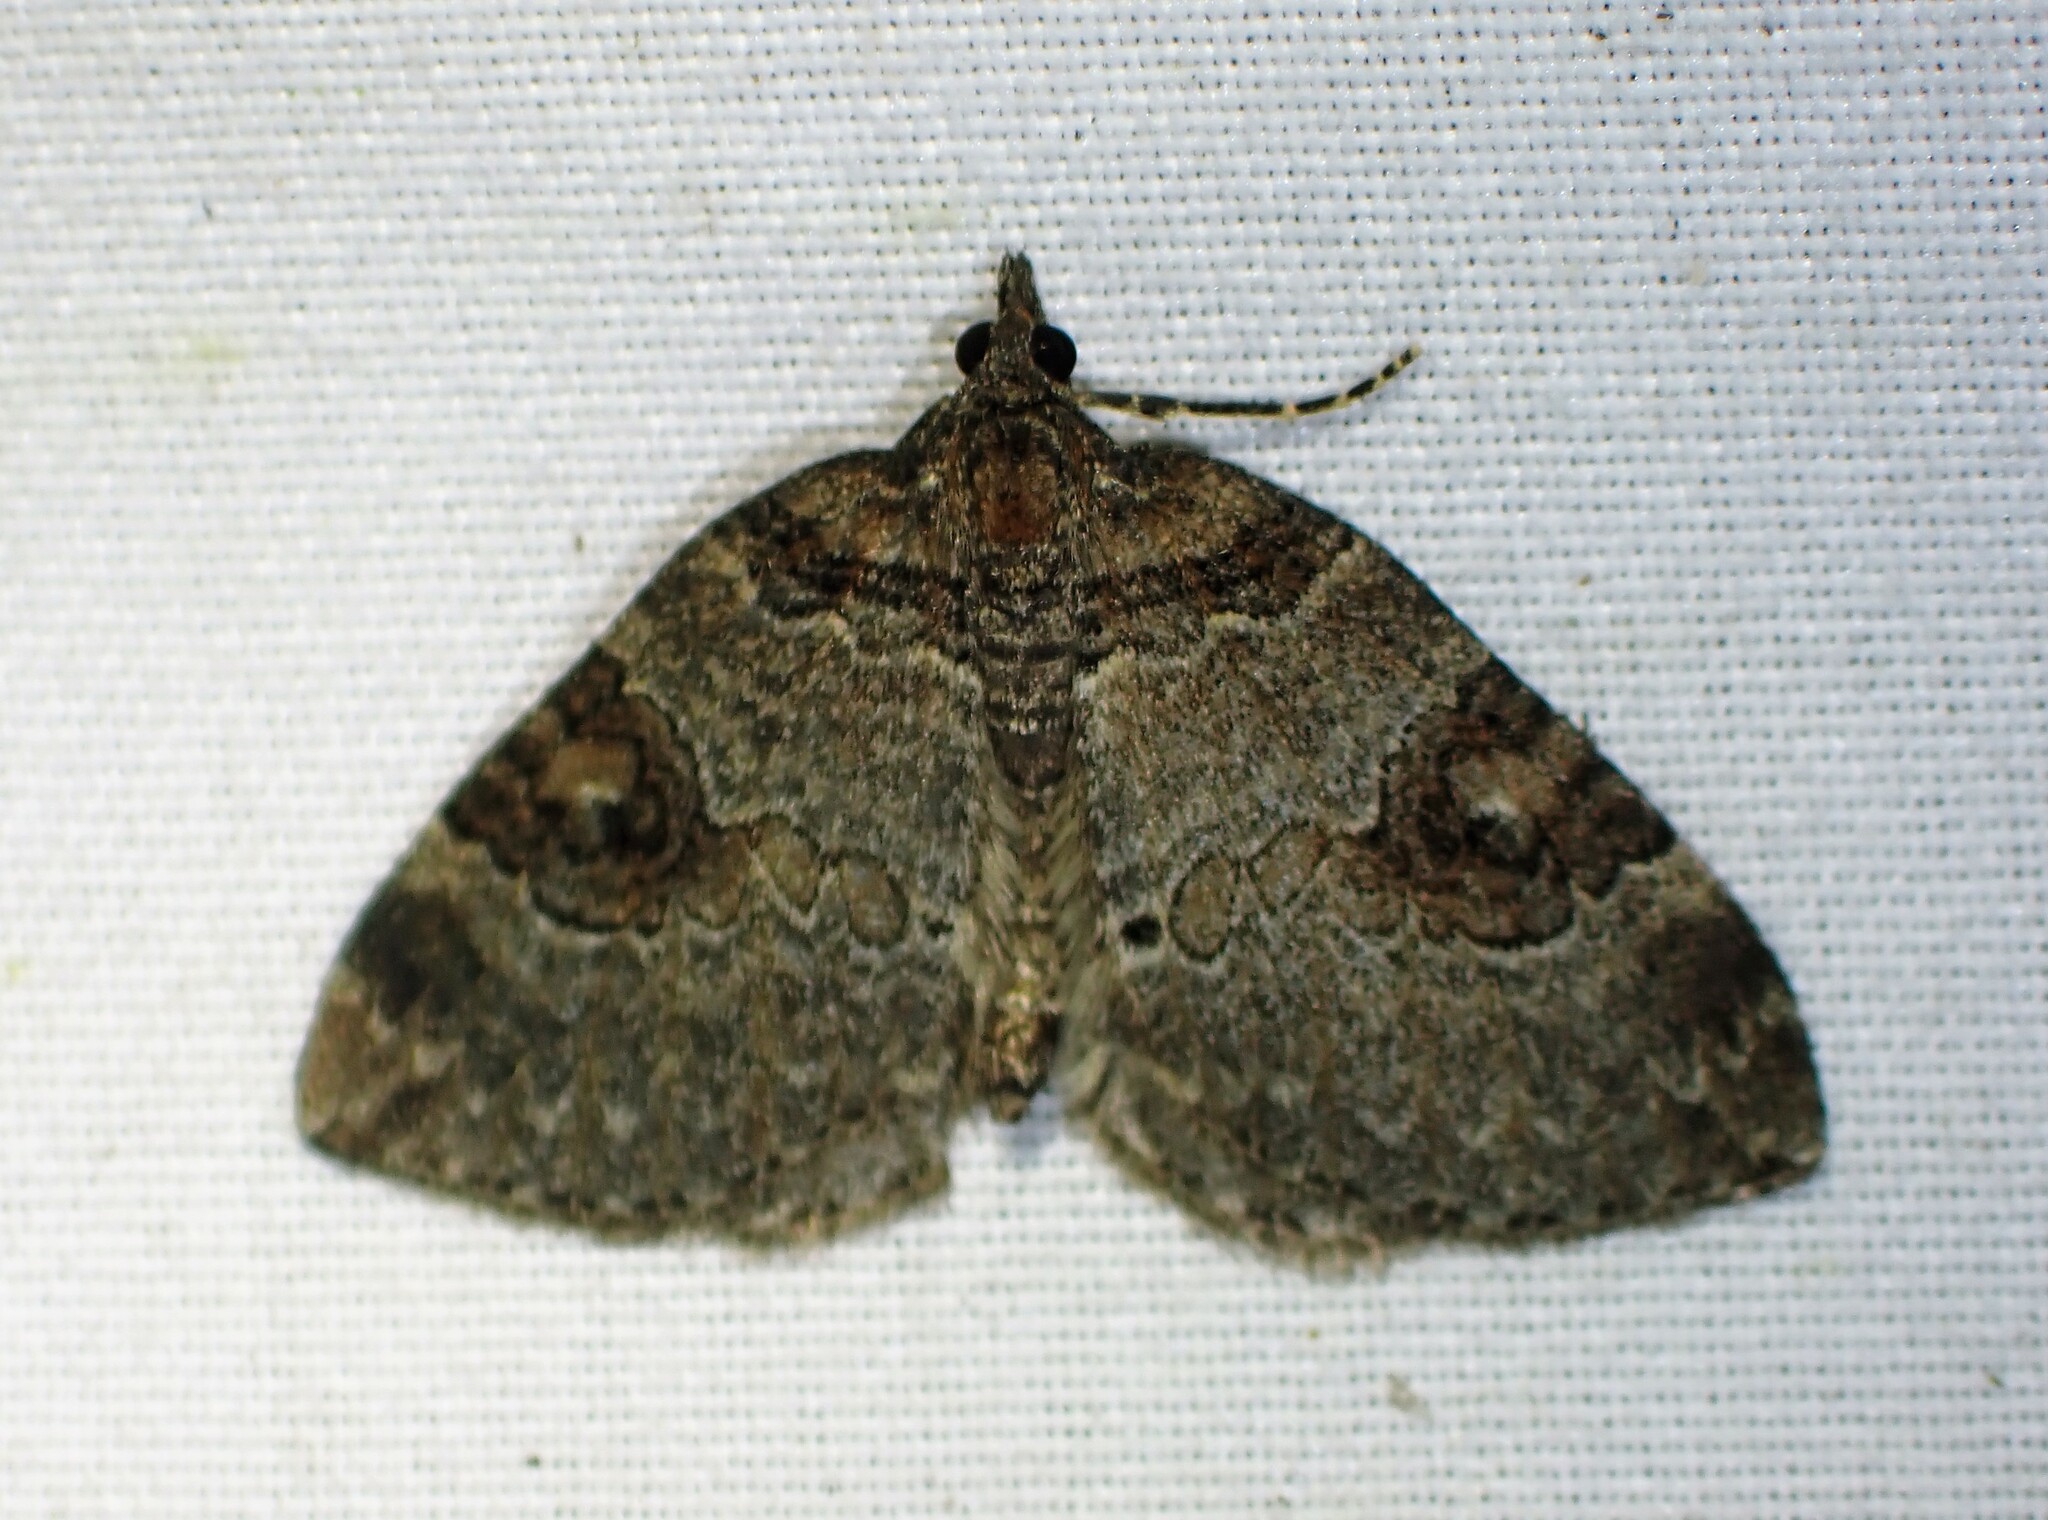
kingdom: Animalia
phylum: Arthropoda
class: Insecta
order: Lepidoptera
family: Geometridae
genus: Plemyria
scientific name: Plemyria georgii
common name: George's carpet moth
